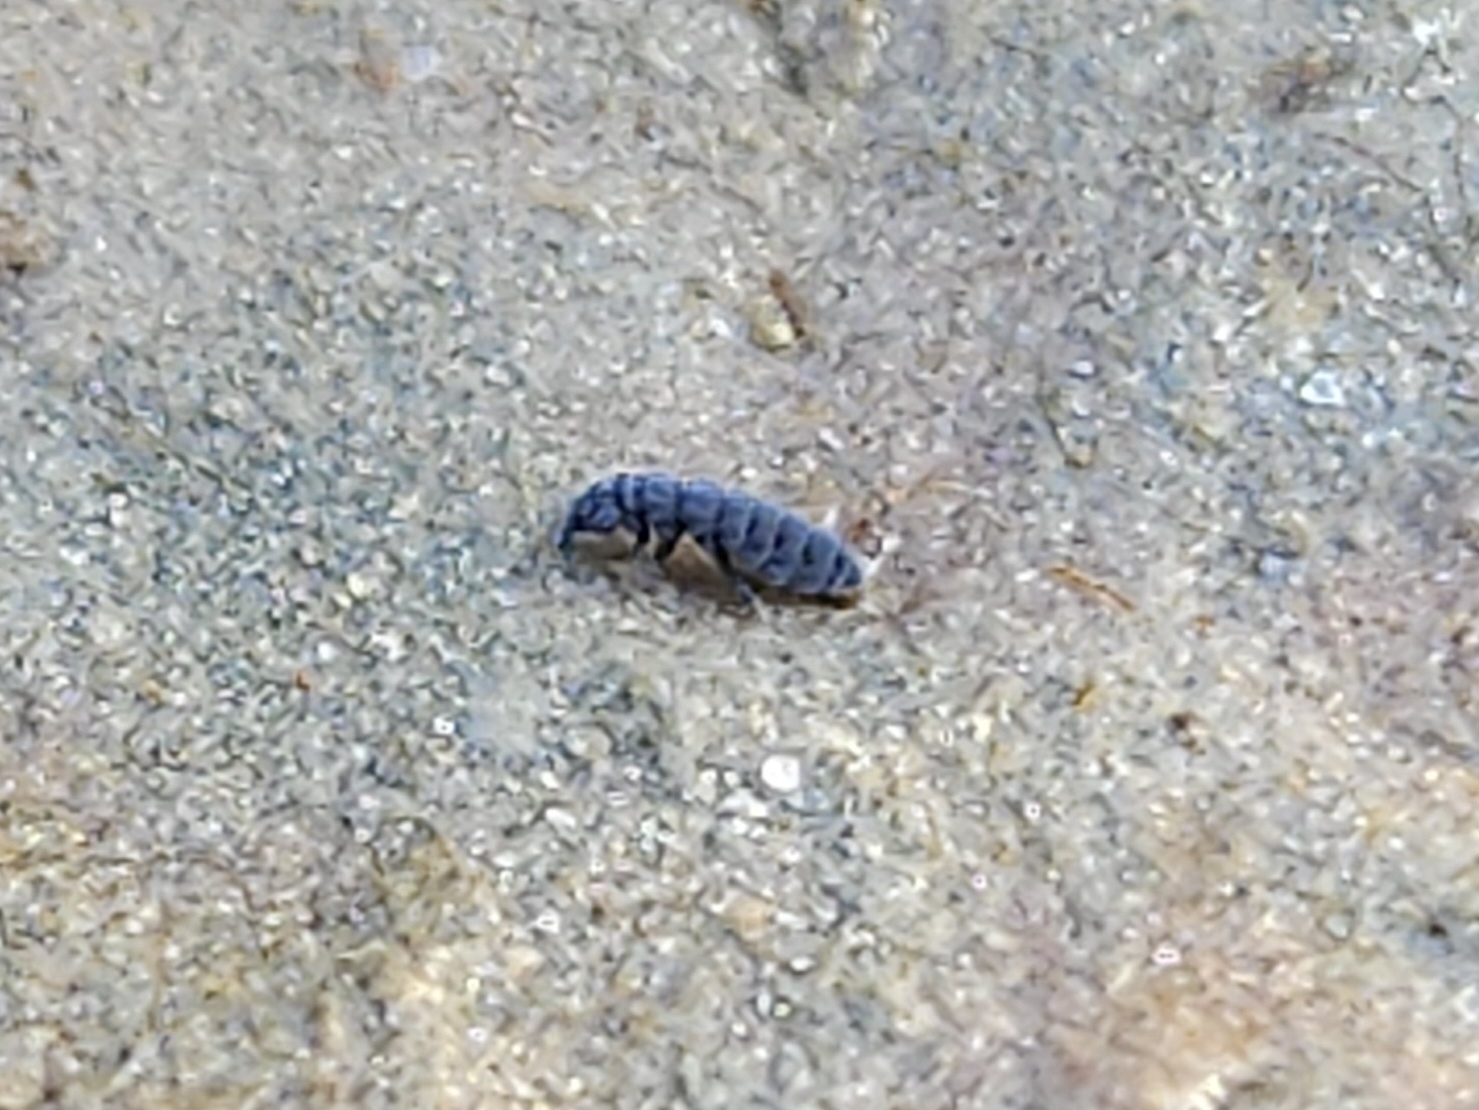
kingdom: Animalia
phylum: Arthropoda
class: Collembola
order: Poduromorpha
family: Neanuridae
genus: Anurida
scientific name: Anurida maritima
